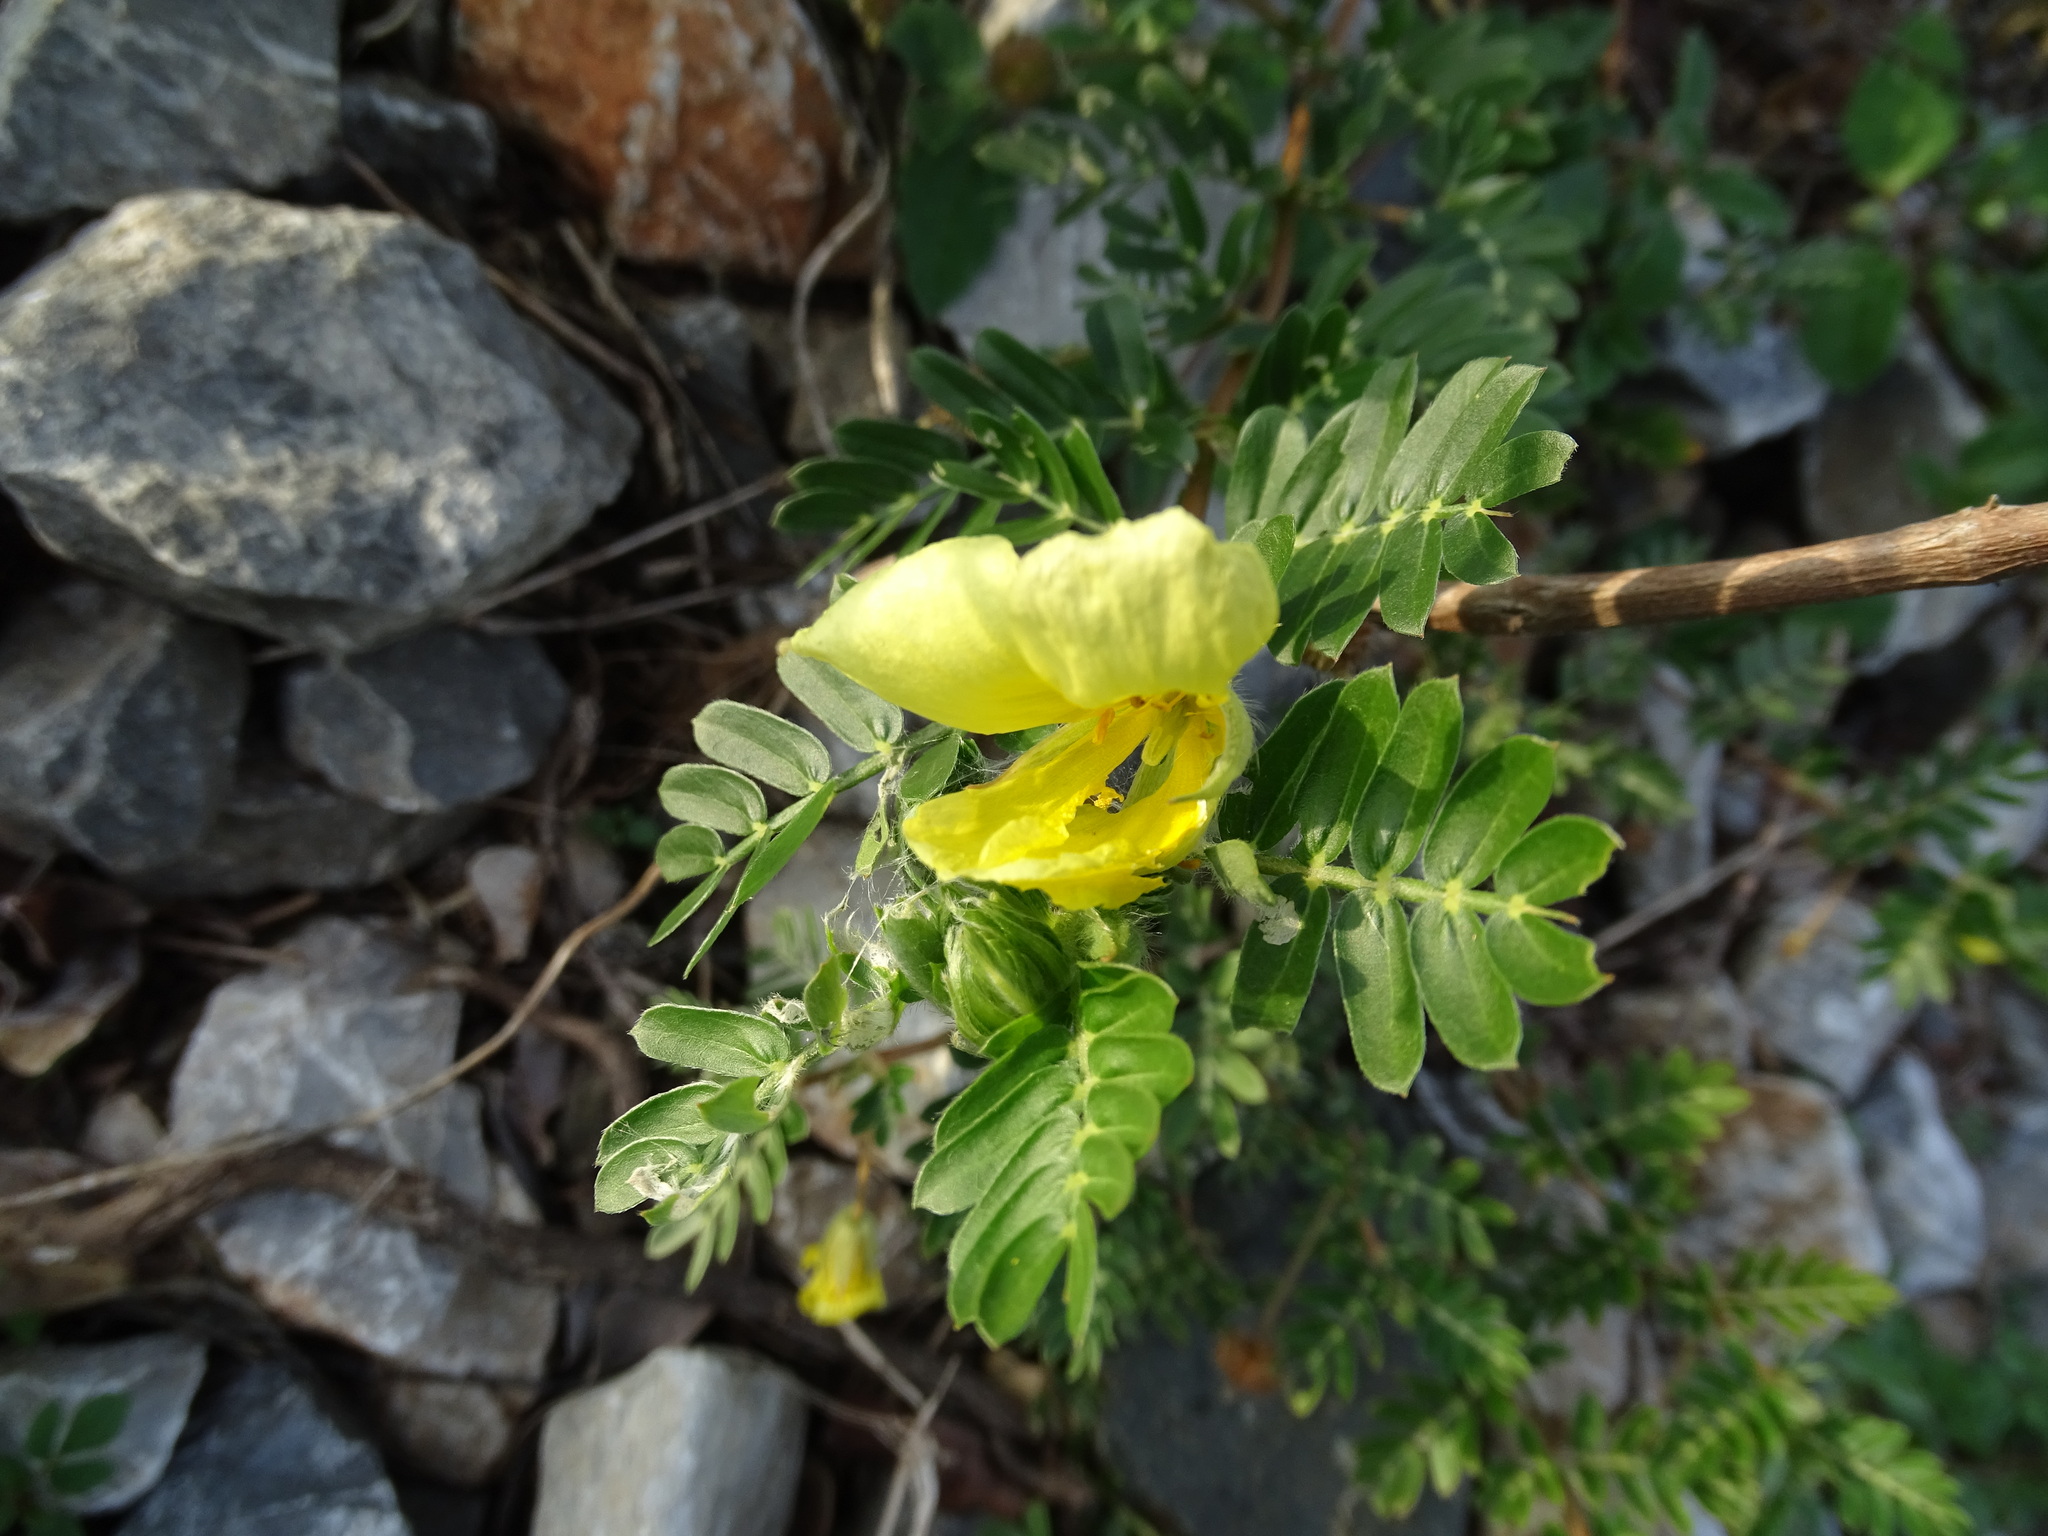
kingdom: Plantae
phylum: Tracheophyta
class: Magnoliopsida
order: Zygophyllales
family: Zygophyllaceae
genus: Tribulus
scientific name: Tribulus cistoides
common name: Jamaican feverplant
